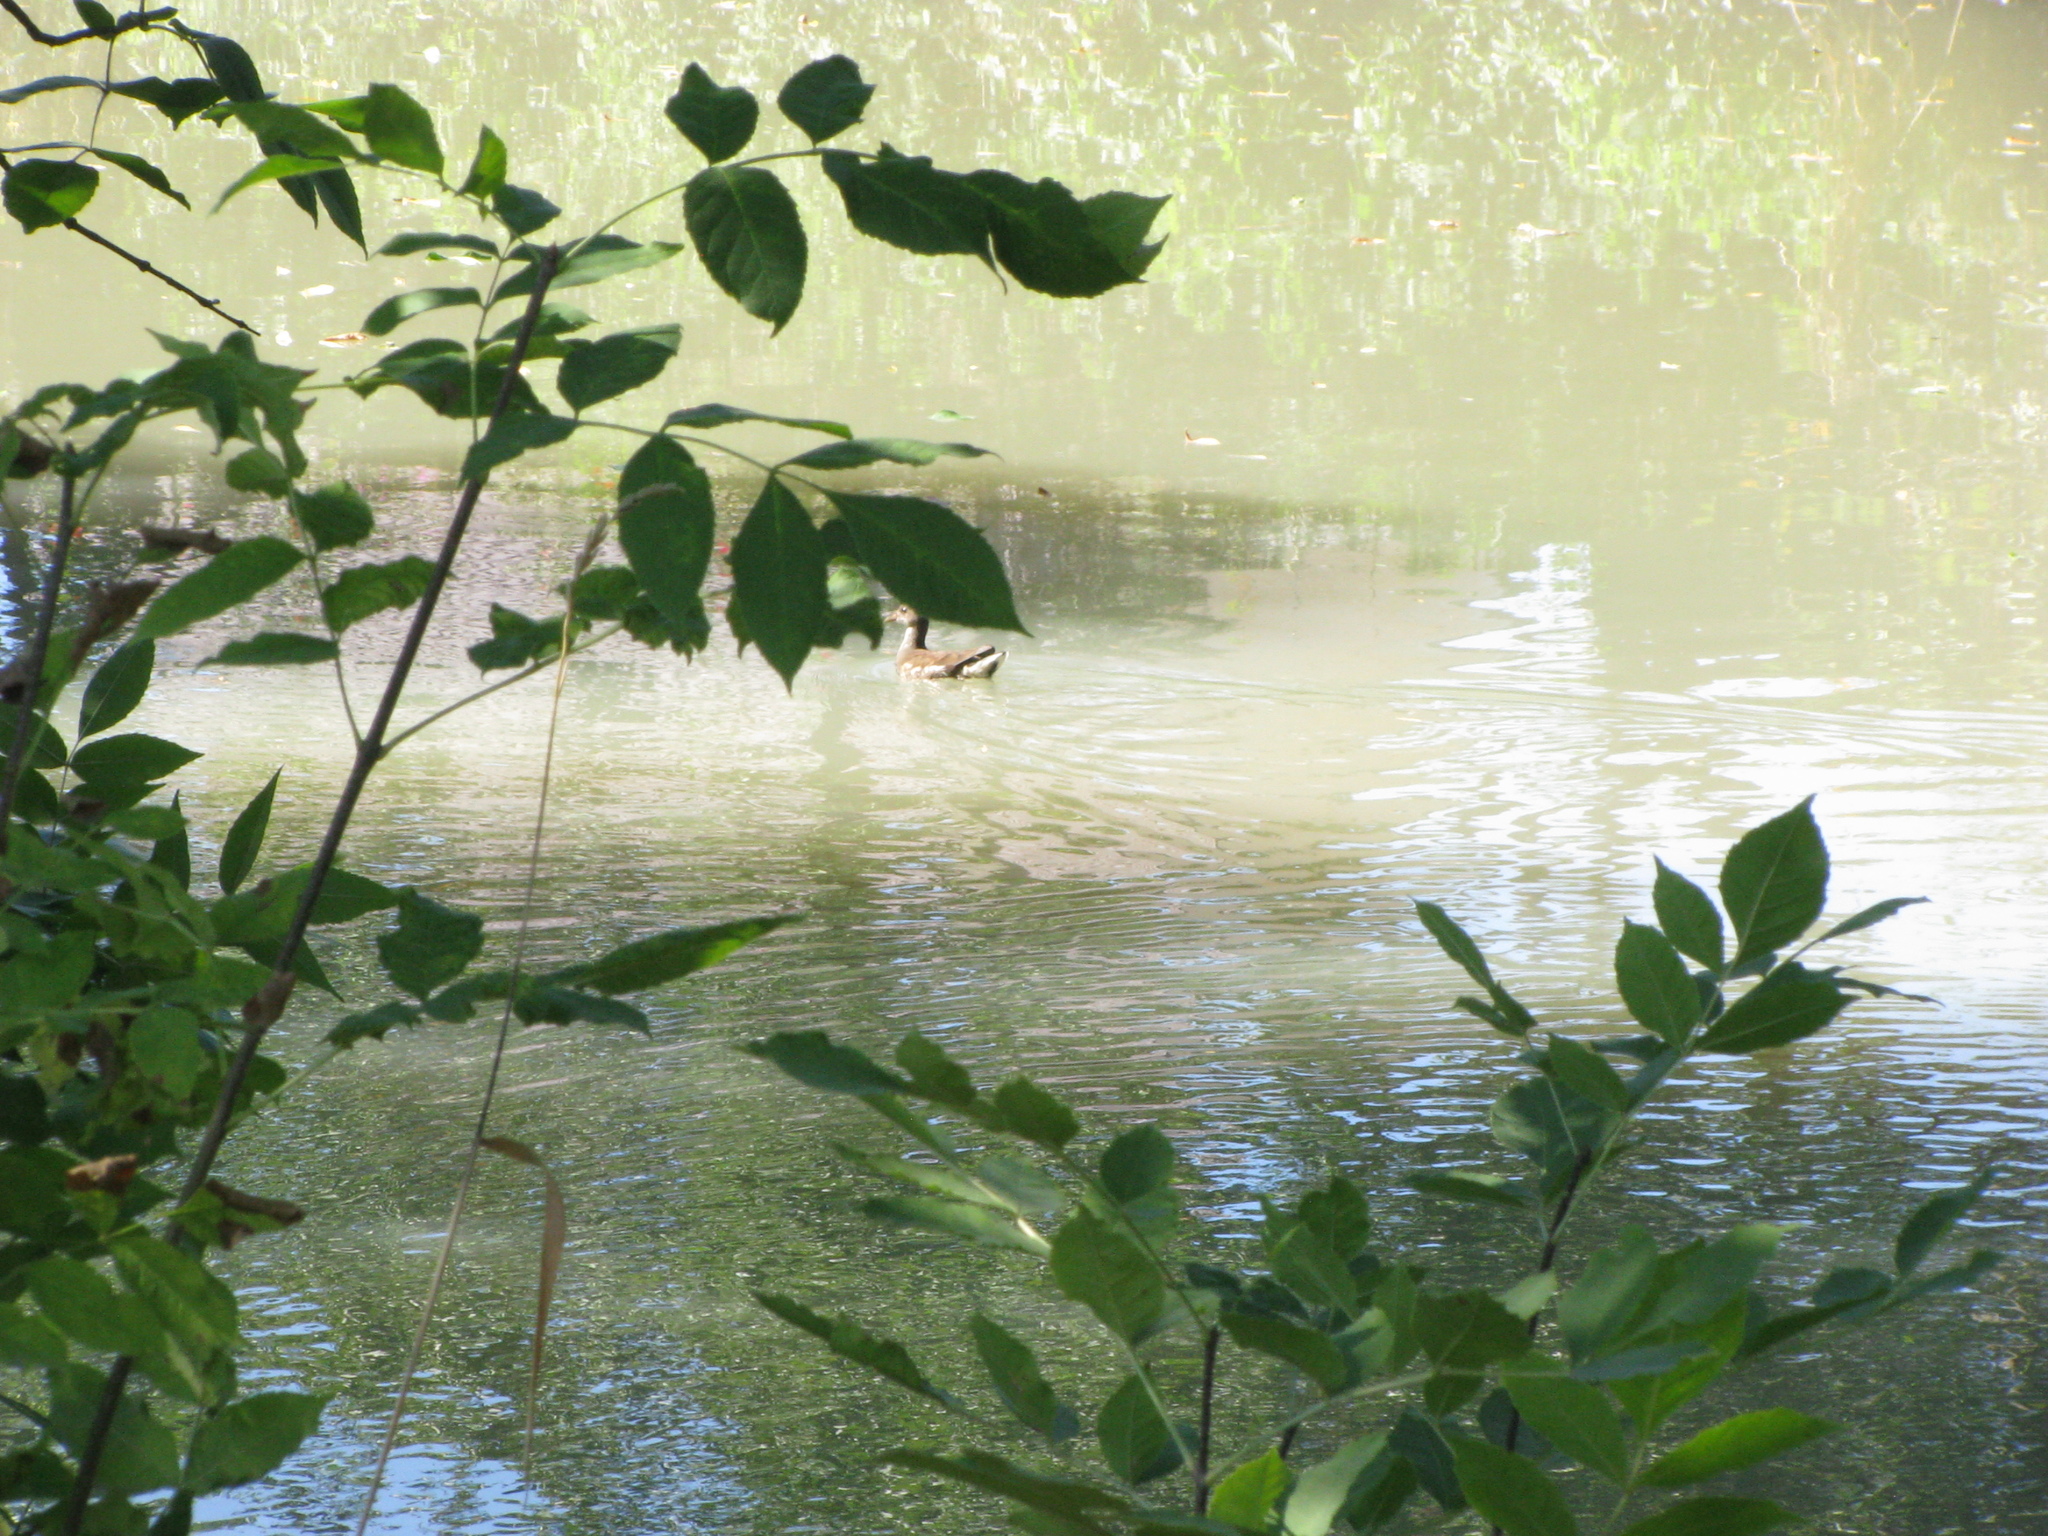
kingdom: Animalia
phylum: Chordata
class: Aves
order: Gruiformes
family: Rallidae
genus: Gallinula
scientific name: Gallinula chloropus
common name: Common moorhen
